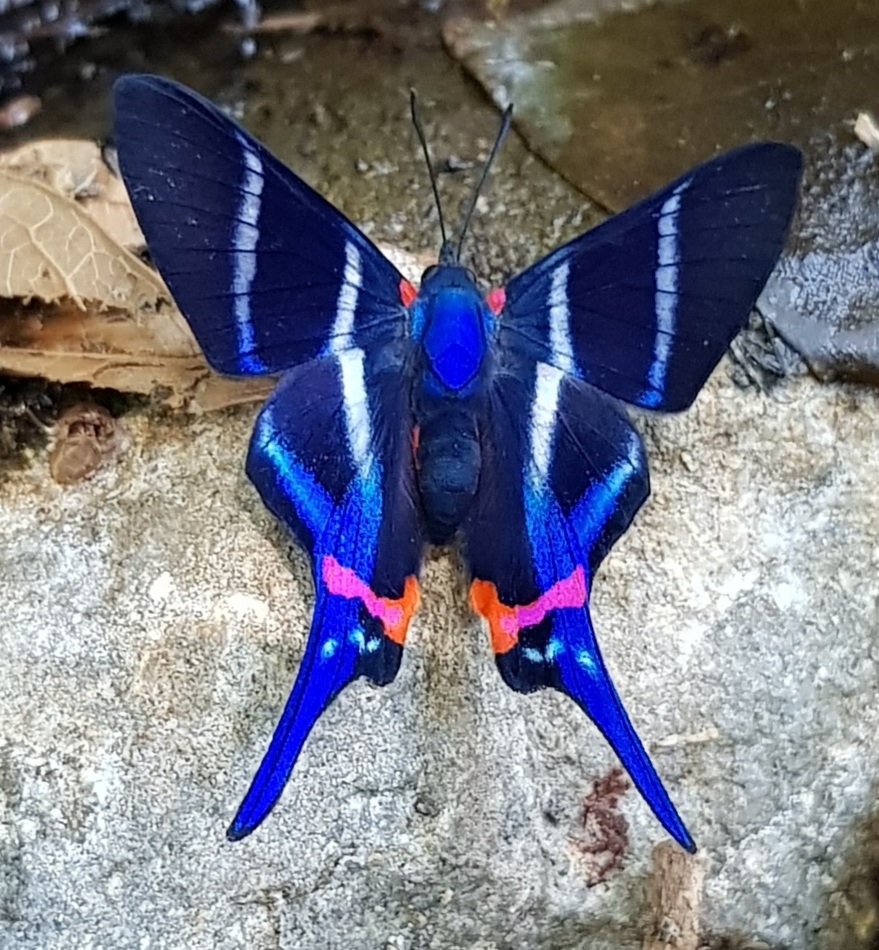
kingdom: Animalia
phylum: Arthropoda
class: Insecta
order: Lepidoptera
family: Riodinidae
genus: Rhetus
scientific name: Rhetus arcius
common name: Long-tailed metalmark
